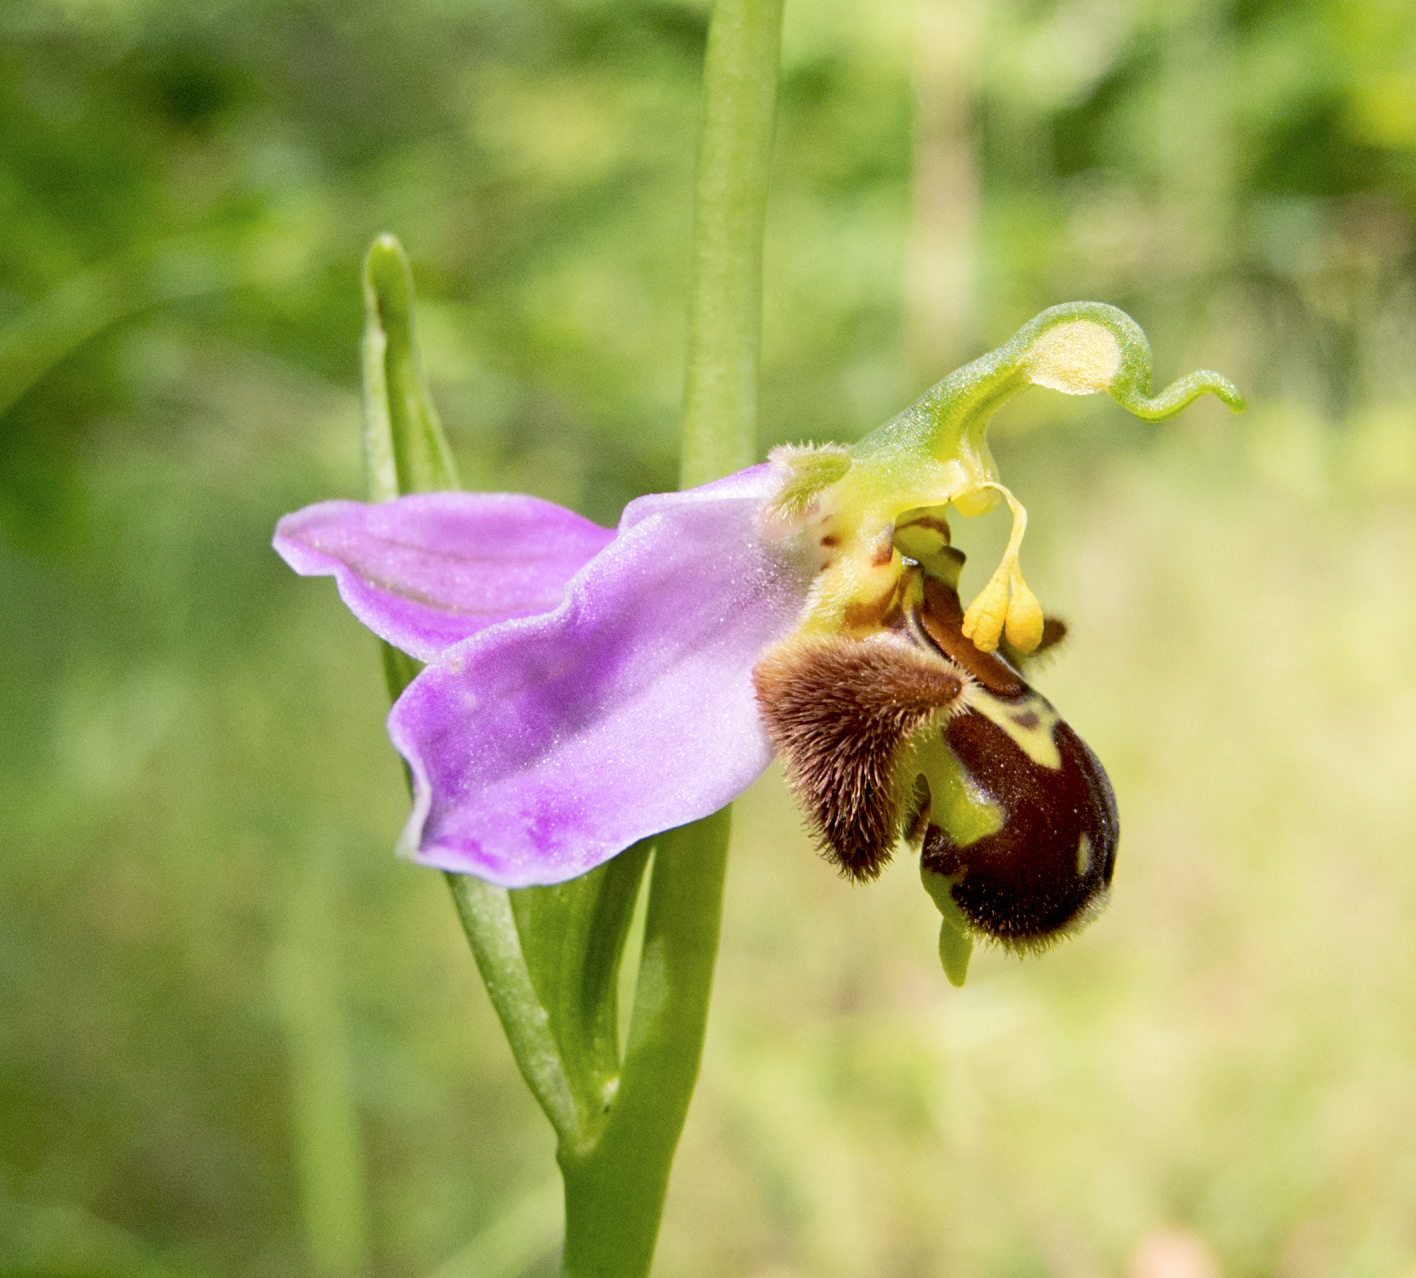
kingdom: Plantae
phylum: Tracheophyta
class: Liliopsida
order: Asparagales
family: Orchidaceae
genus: Ophrys
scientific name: Ophrys apifera
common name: Bee orchid
